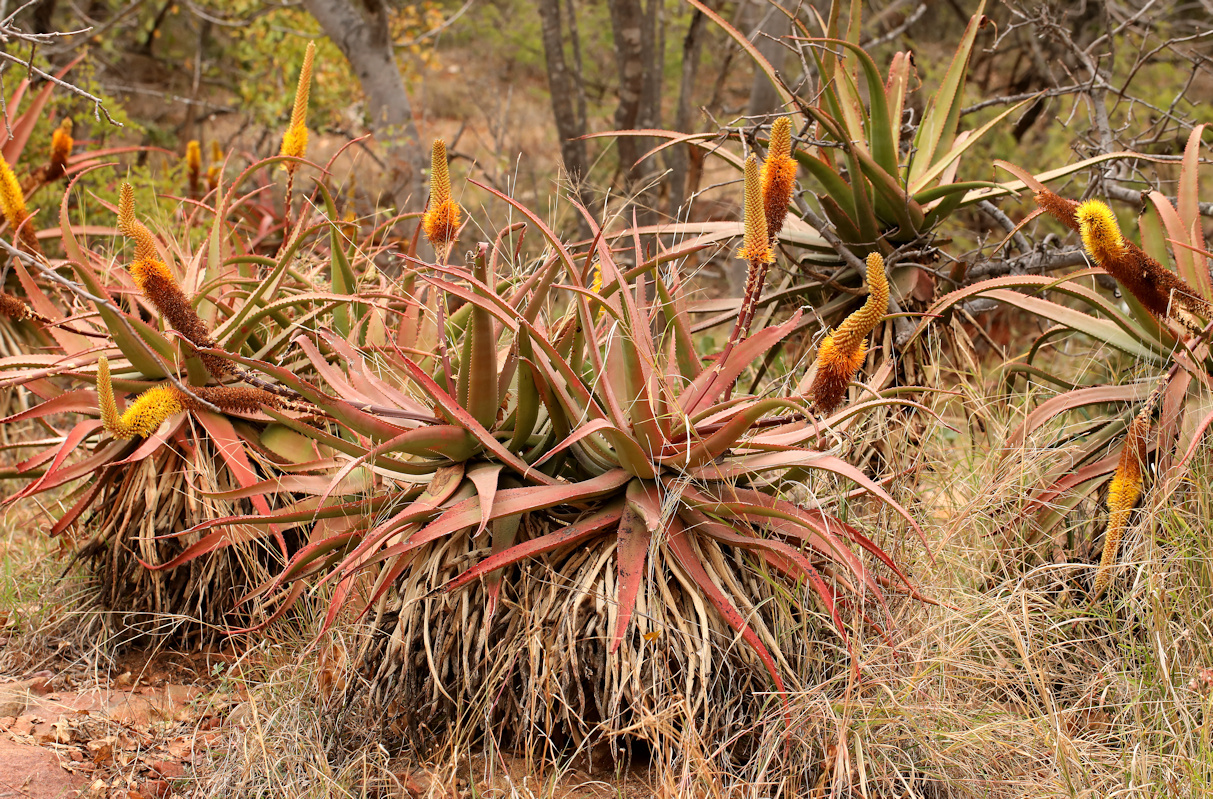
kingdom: Plantae
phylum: Tracheophyta
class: Liliopsida
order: Asparagales
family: Asphodelaceae
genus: Aloe
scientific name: Aloe spicata
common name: Gazaland aloe
